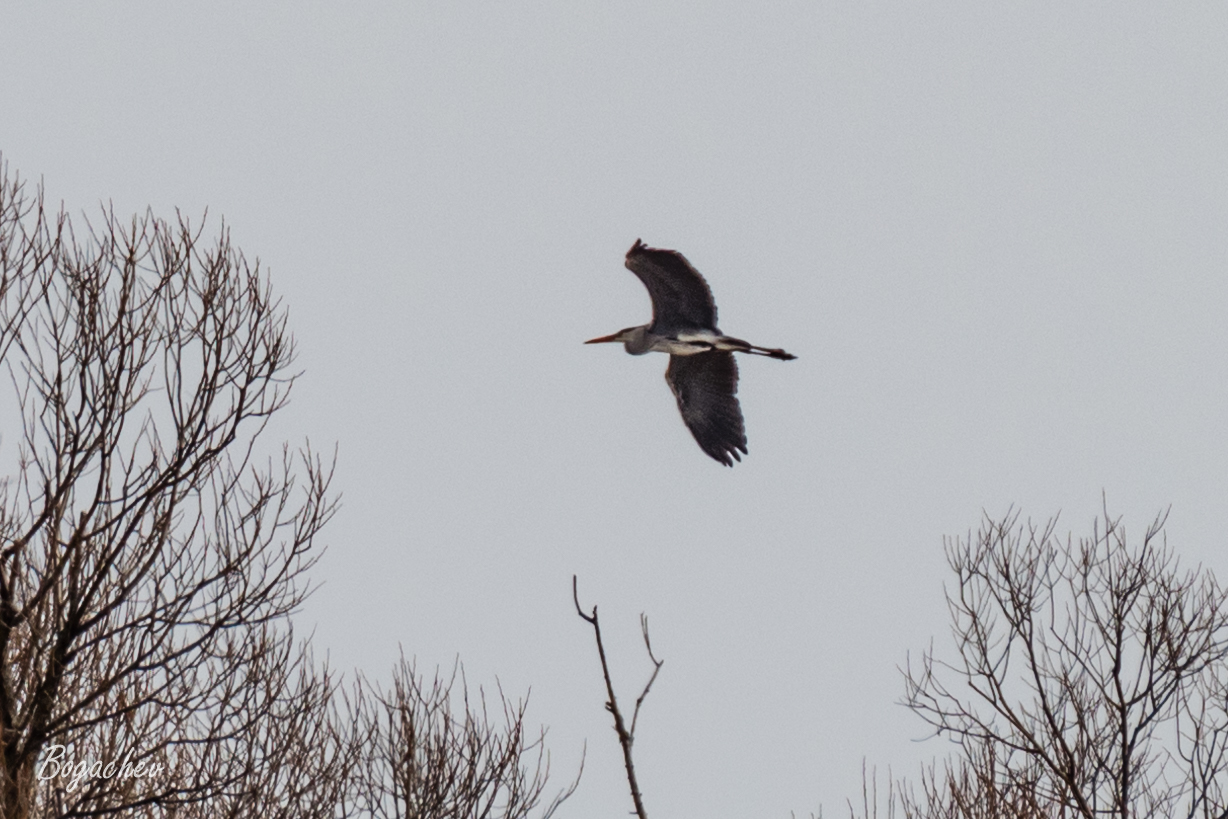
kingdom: Animalia
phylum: Chordata
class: Aves
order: Pelecaniformes
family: Ardeidae
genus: Ardea
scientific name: Ardea cinerea
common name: Grey heron
